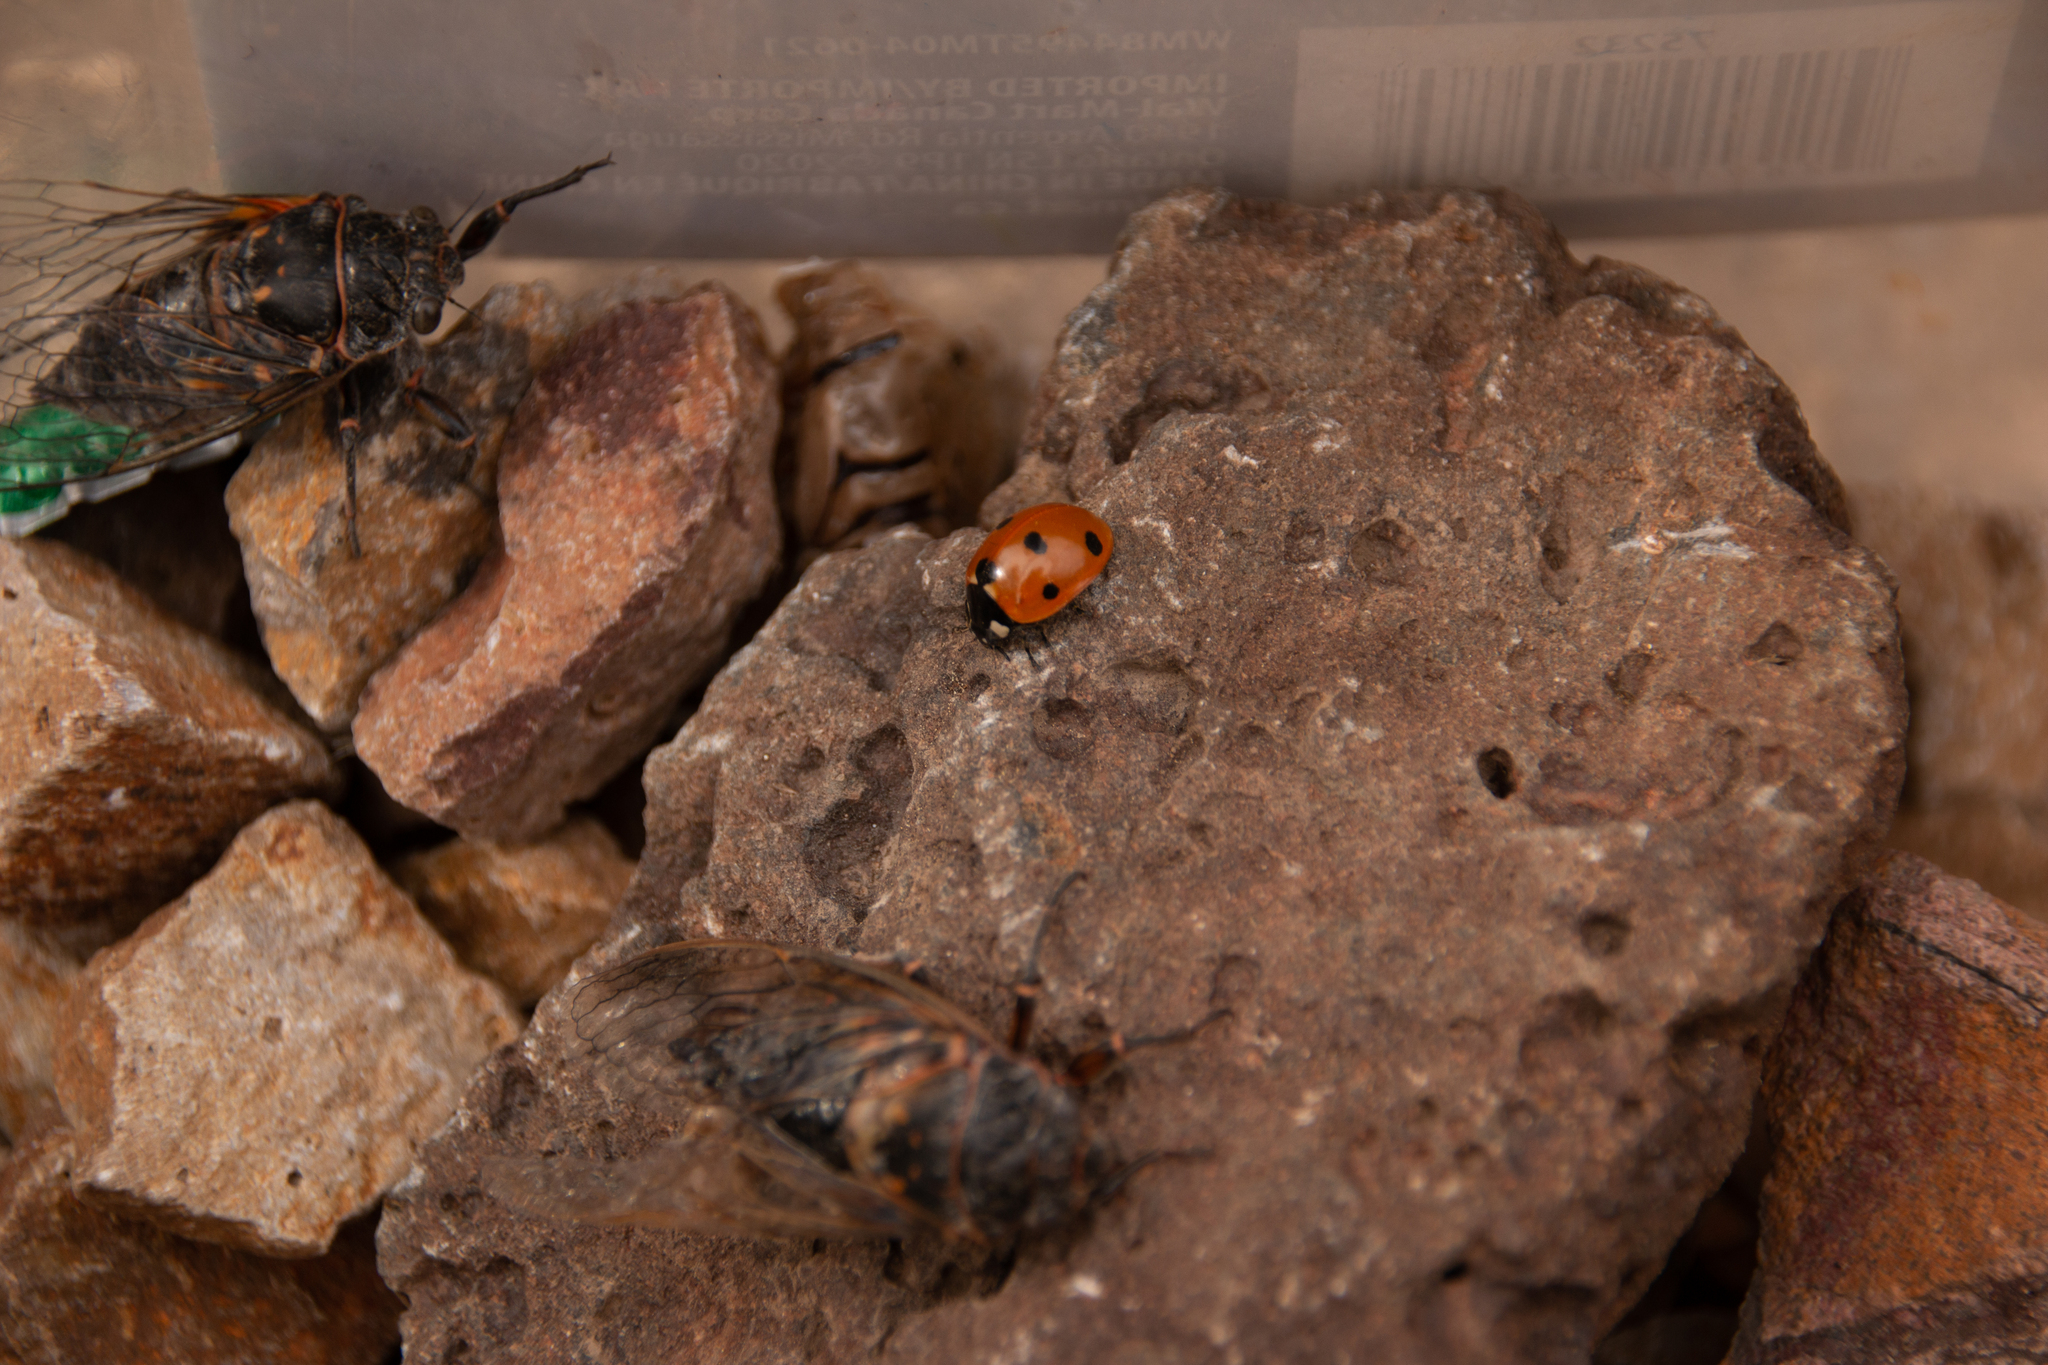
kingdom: Animalia
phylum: Arthropoda
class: Insecta
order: Coleoptera
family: Coccinellidae
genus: Coccinella
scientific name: Coccinella septempunctata
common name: Sevenspotted lady beetle
